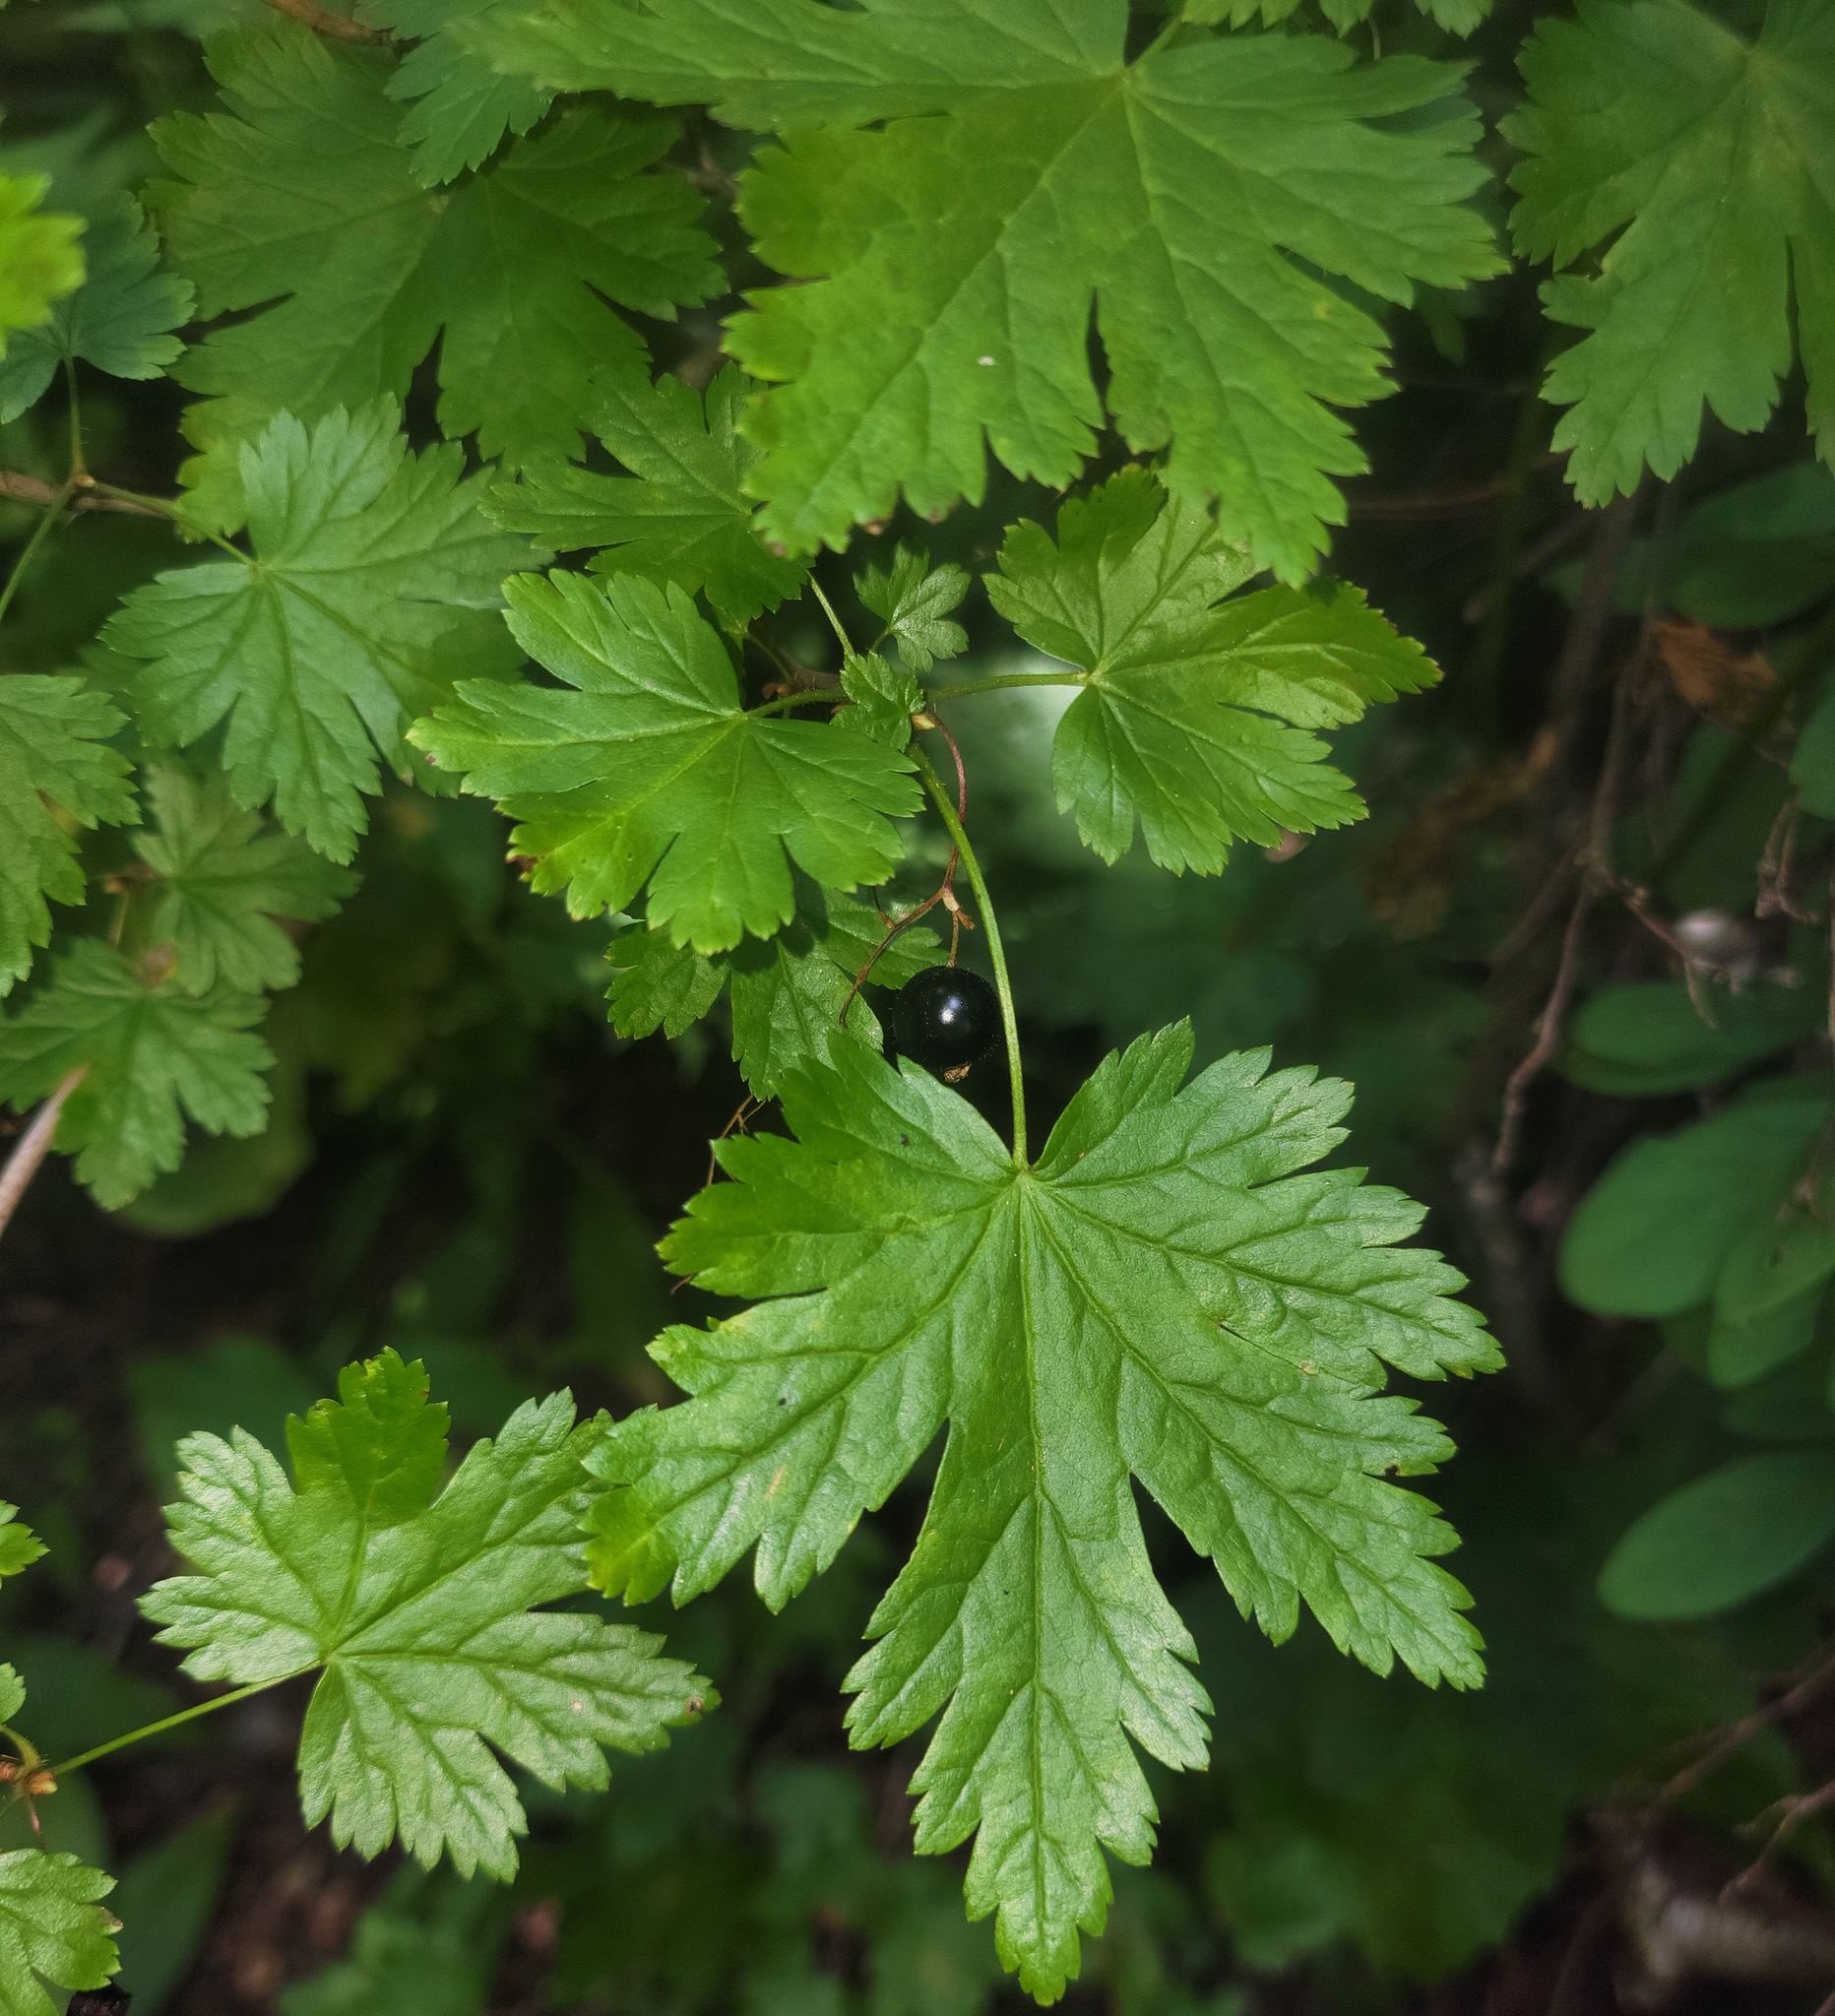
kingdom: Plantae
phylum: Tracheophyta
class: Magnoliopsida
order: Saxifragales
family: Grossulariaceae
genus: Ribes
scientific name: Ribes lacustre
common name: Black gooseberry
